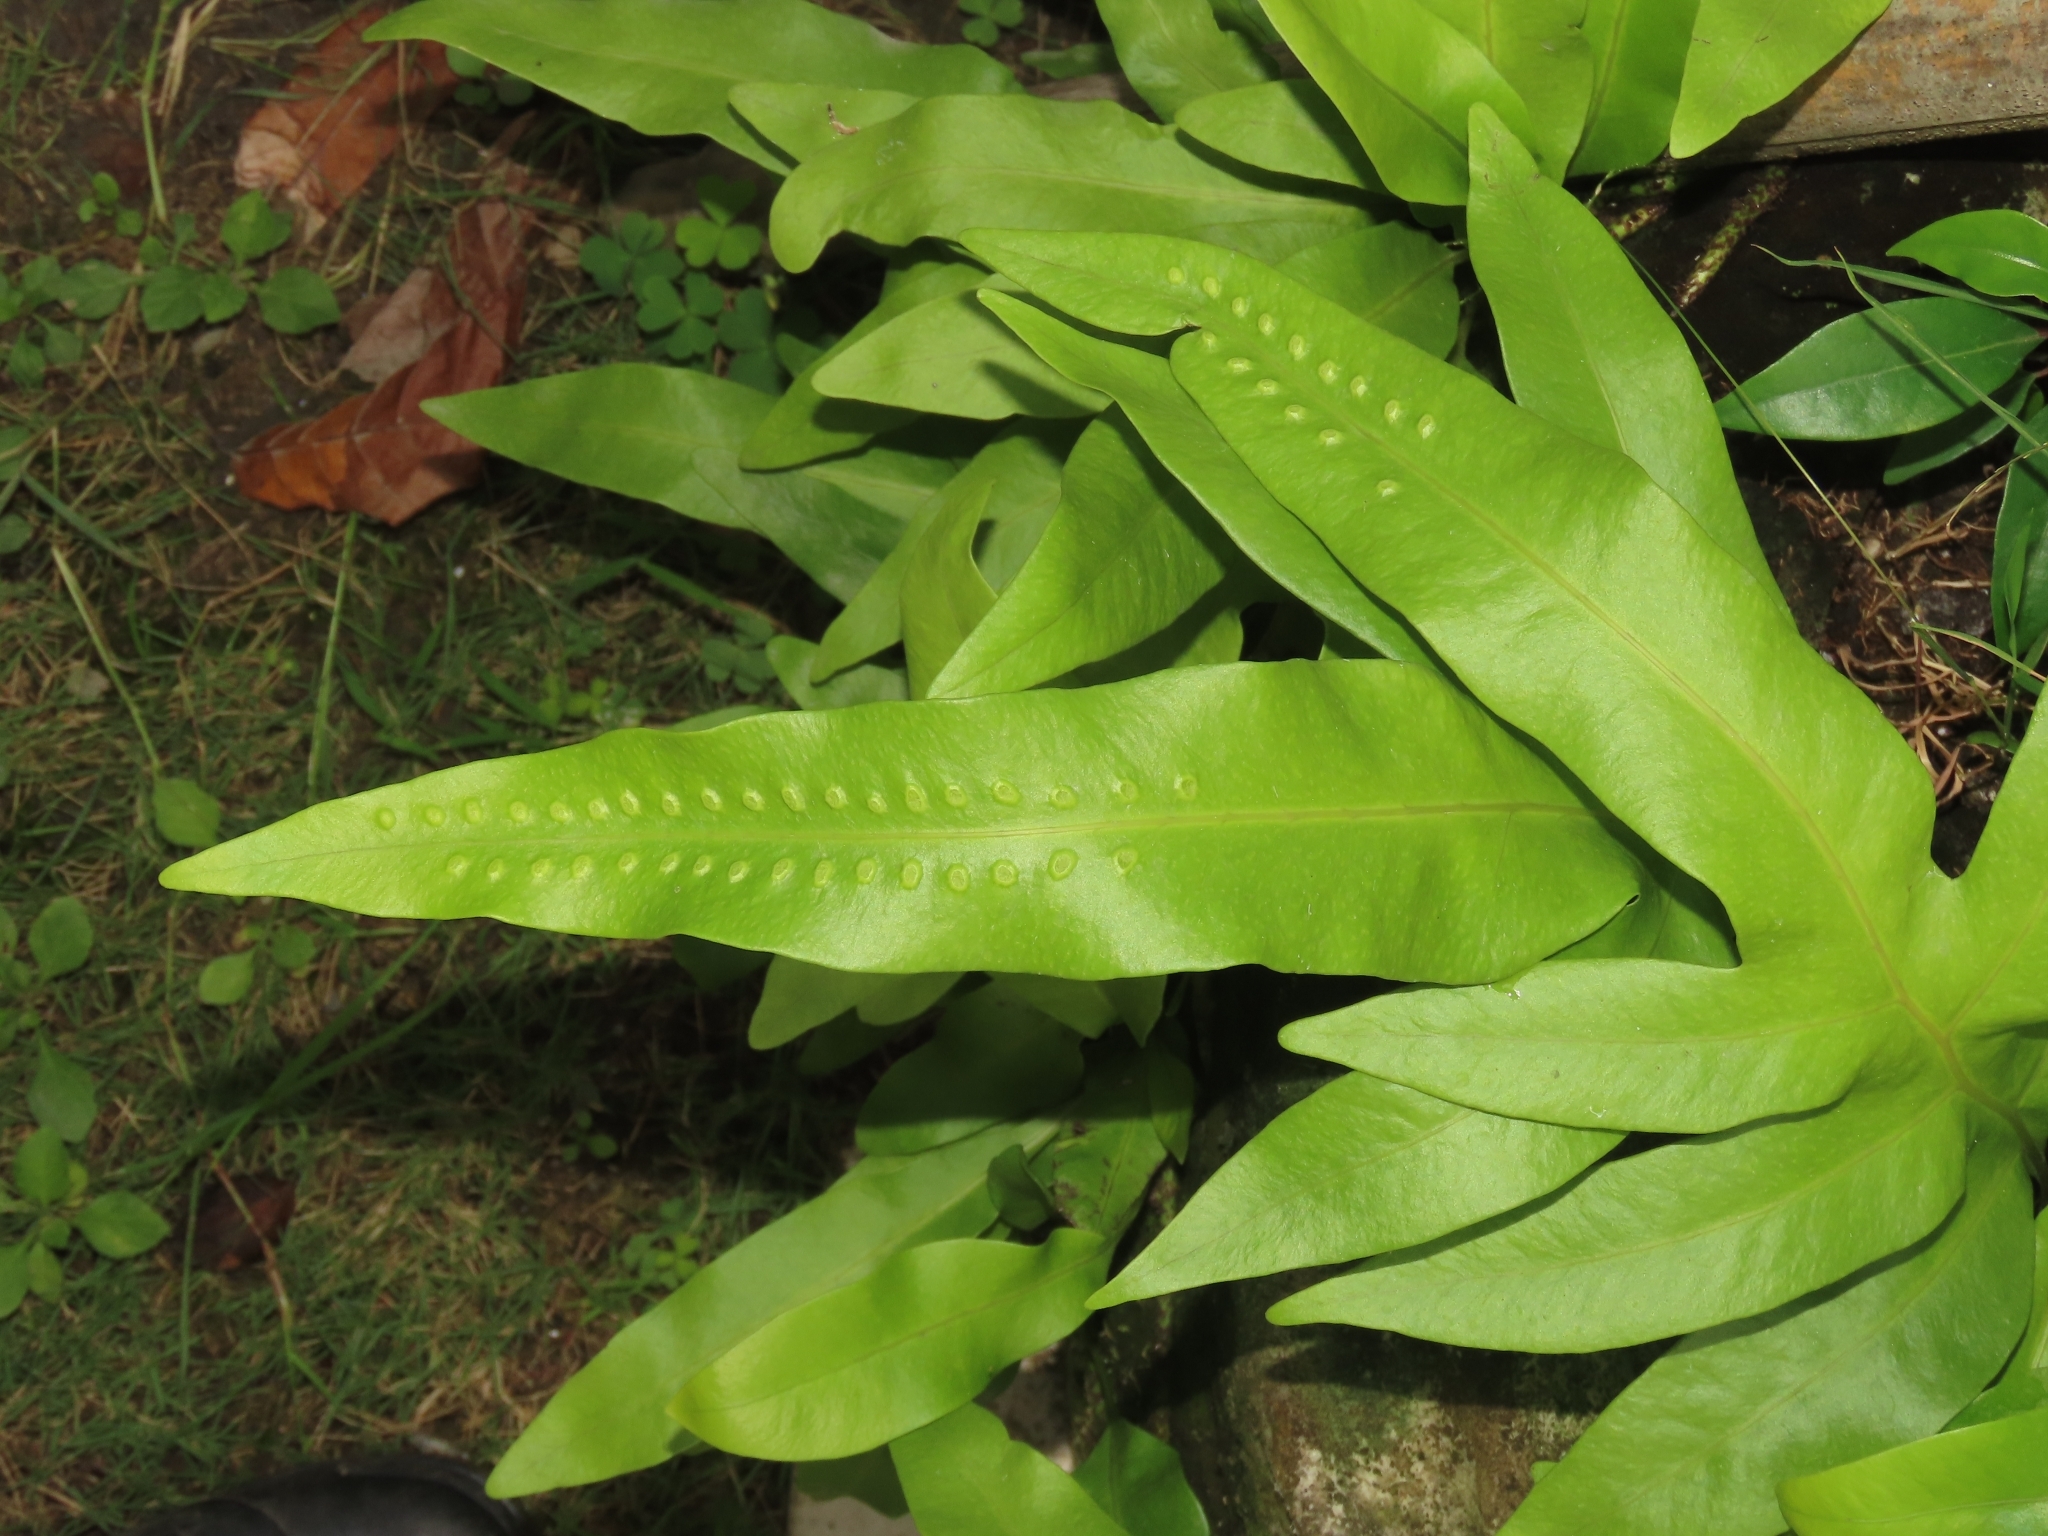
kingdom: Plantae
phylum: Tracheophyta
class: Polypodiopsida
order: Polypodiales
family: Polypodiaceae
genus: Microsorum
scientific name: Microsorum scolopendria
